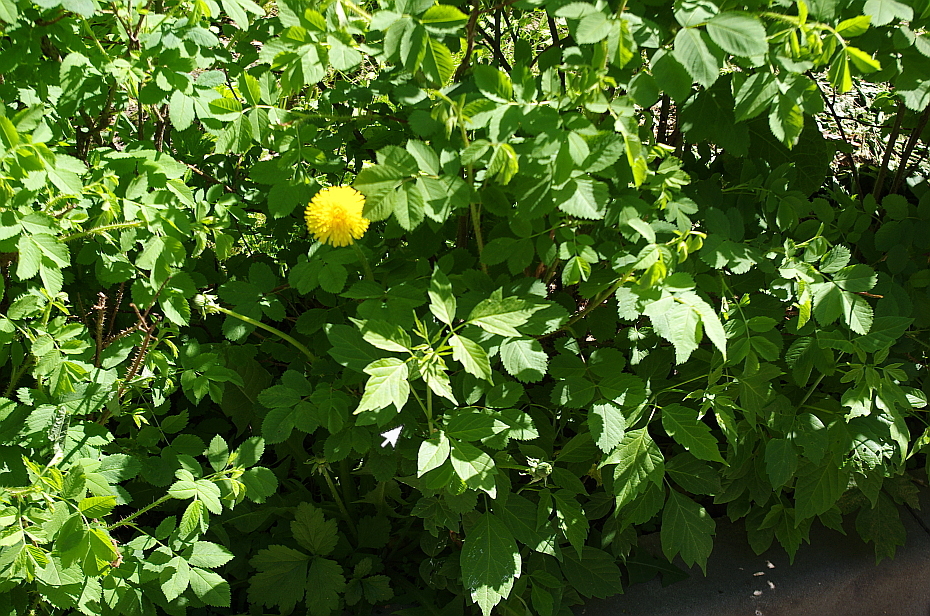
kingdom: Plantae
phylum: Tracheophyta
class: Magnoliopsida
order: Sapindales
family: Sapindaceae
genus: Acer
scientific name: Acer negundo
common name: Ashleaf maple
